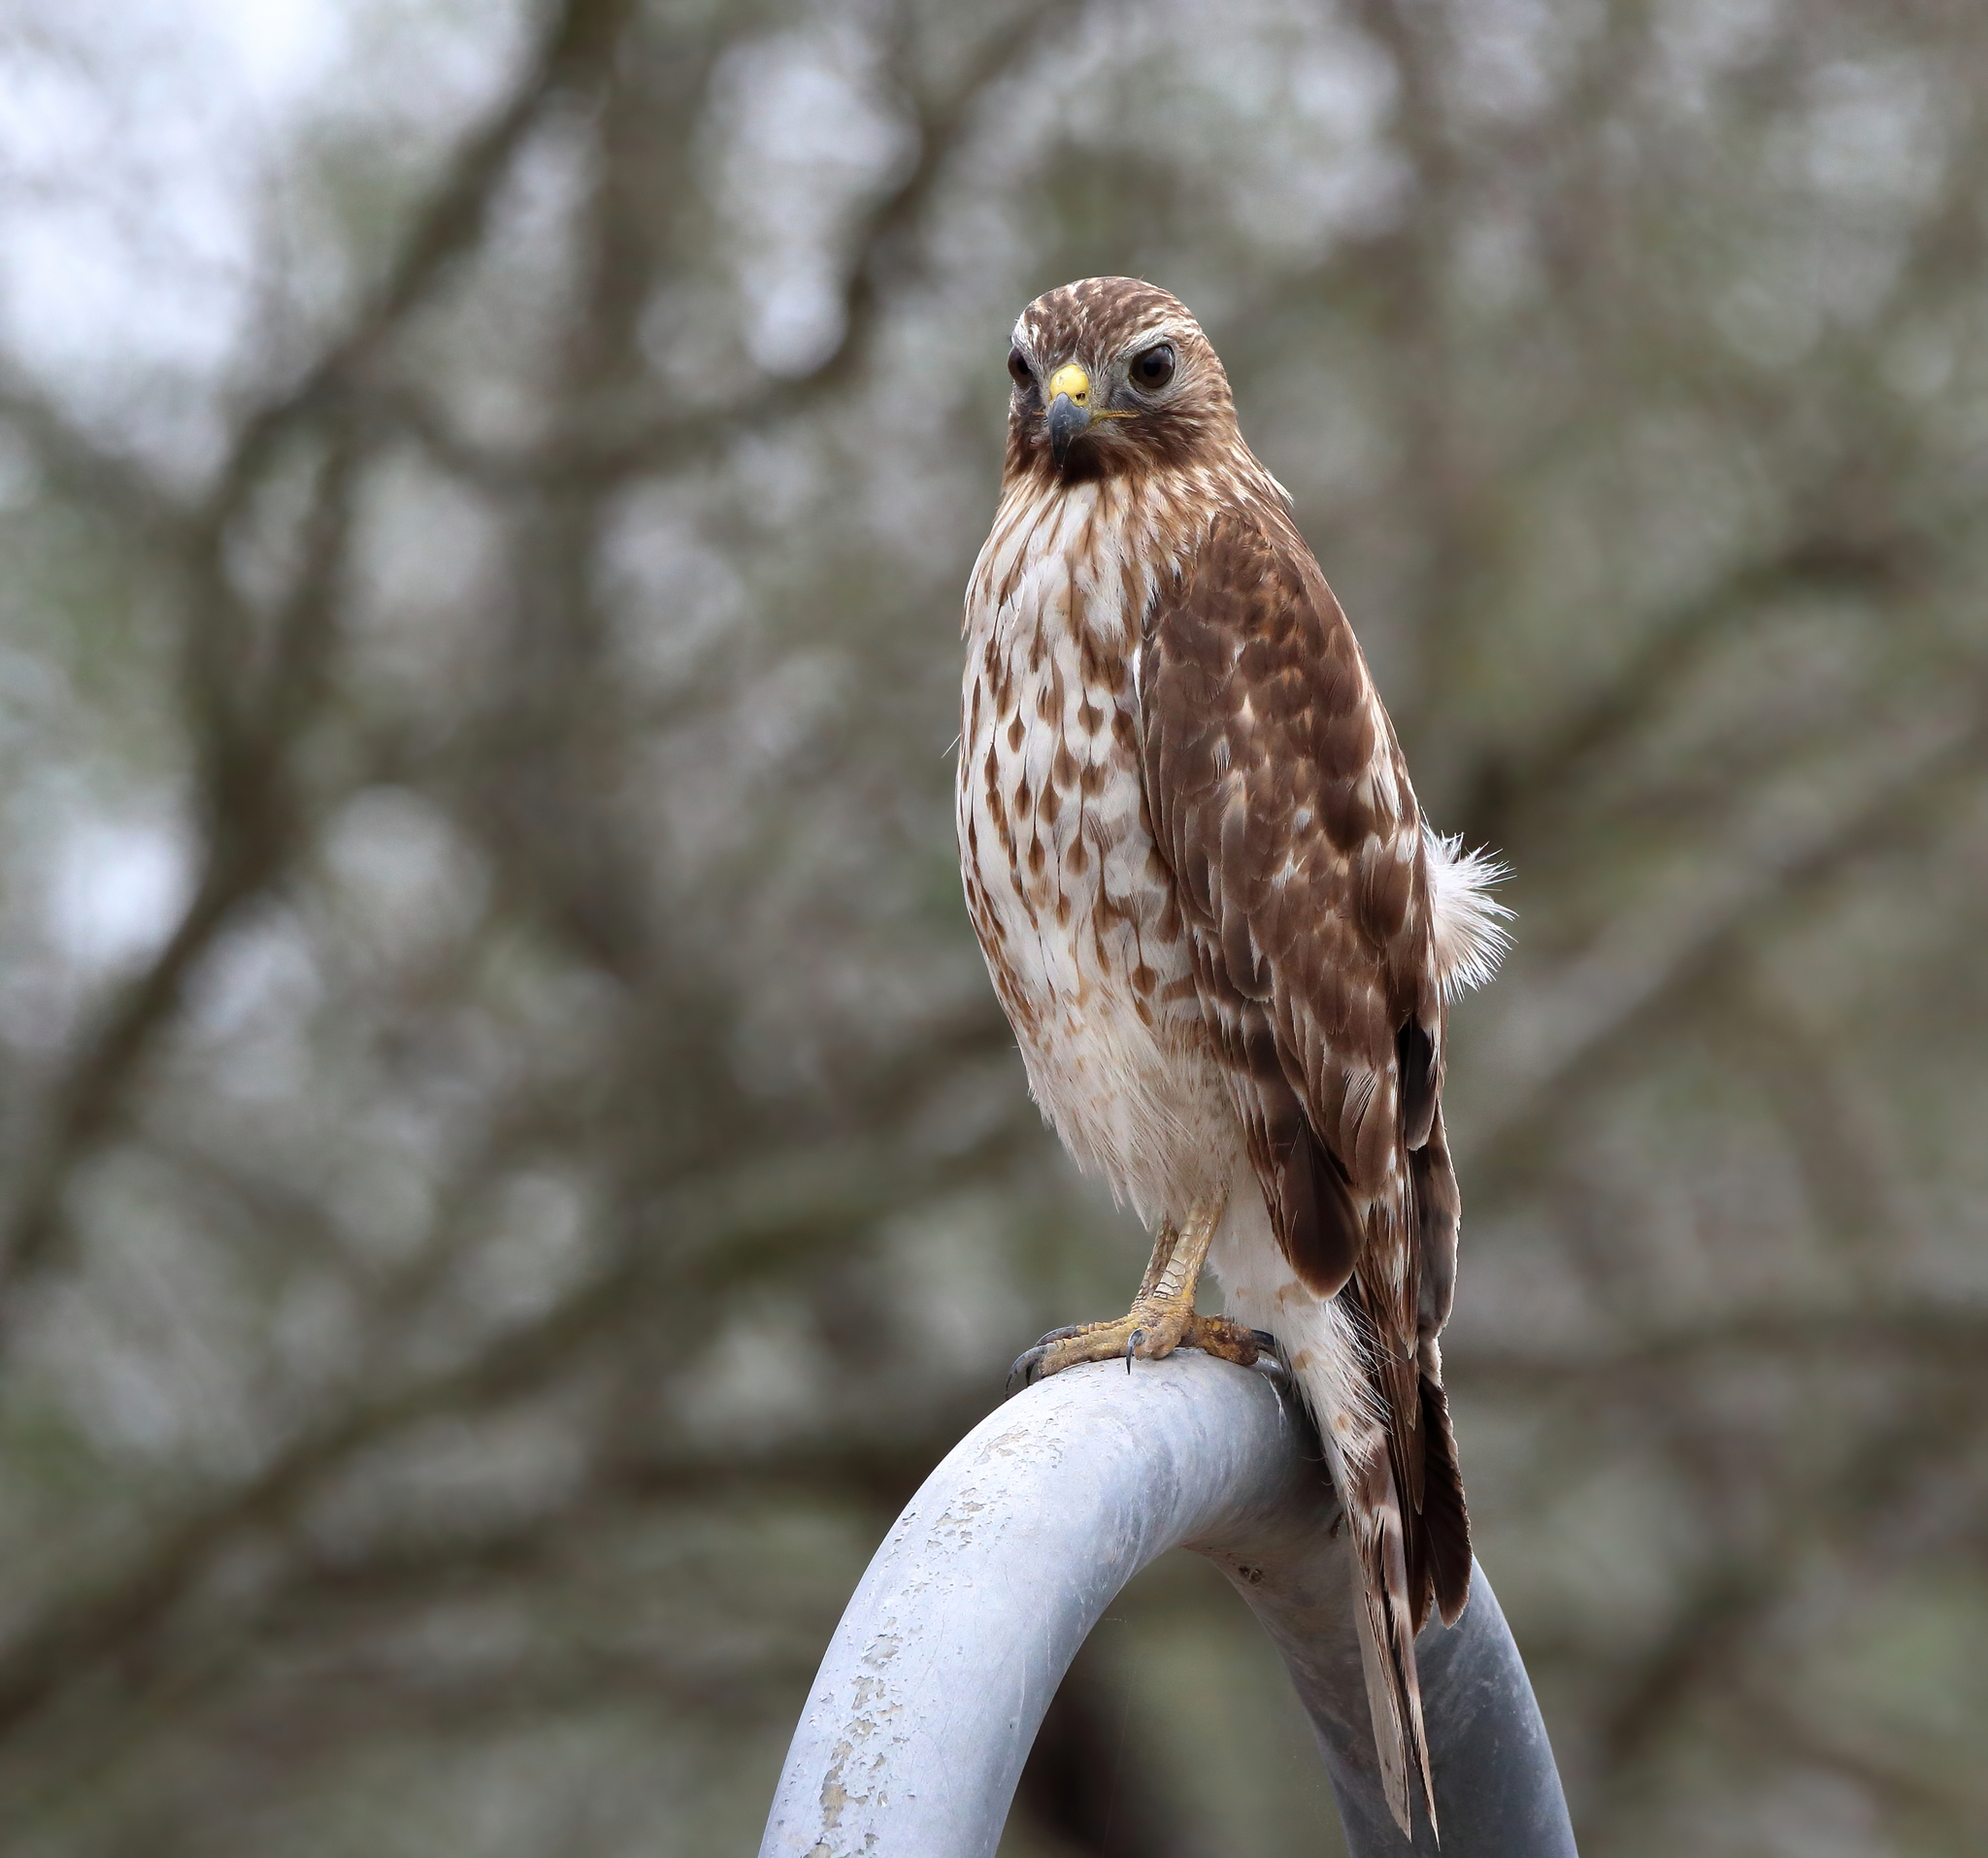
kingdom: Animalia
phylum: Chordata
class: Aves
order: Accipitriformes
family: Accipitridae
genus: Buteo
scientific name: Buteo lineatus
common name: Red-shouldered hawk
